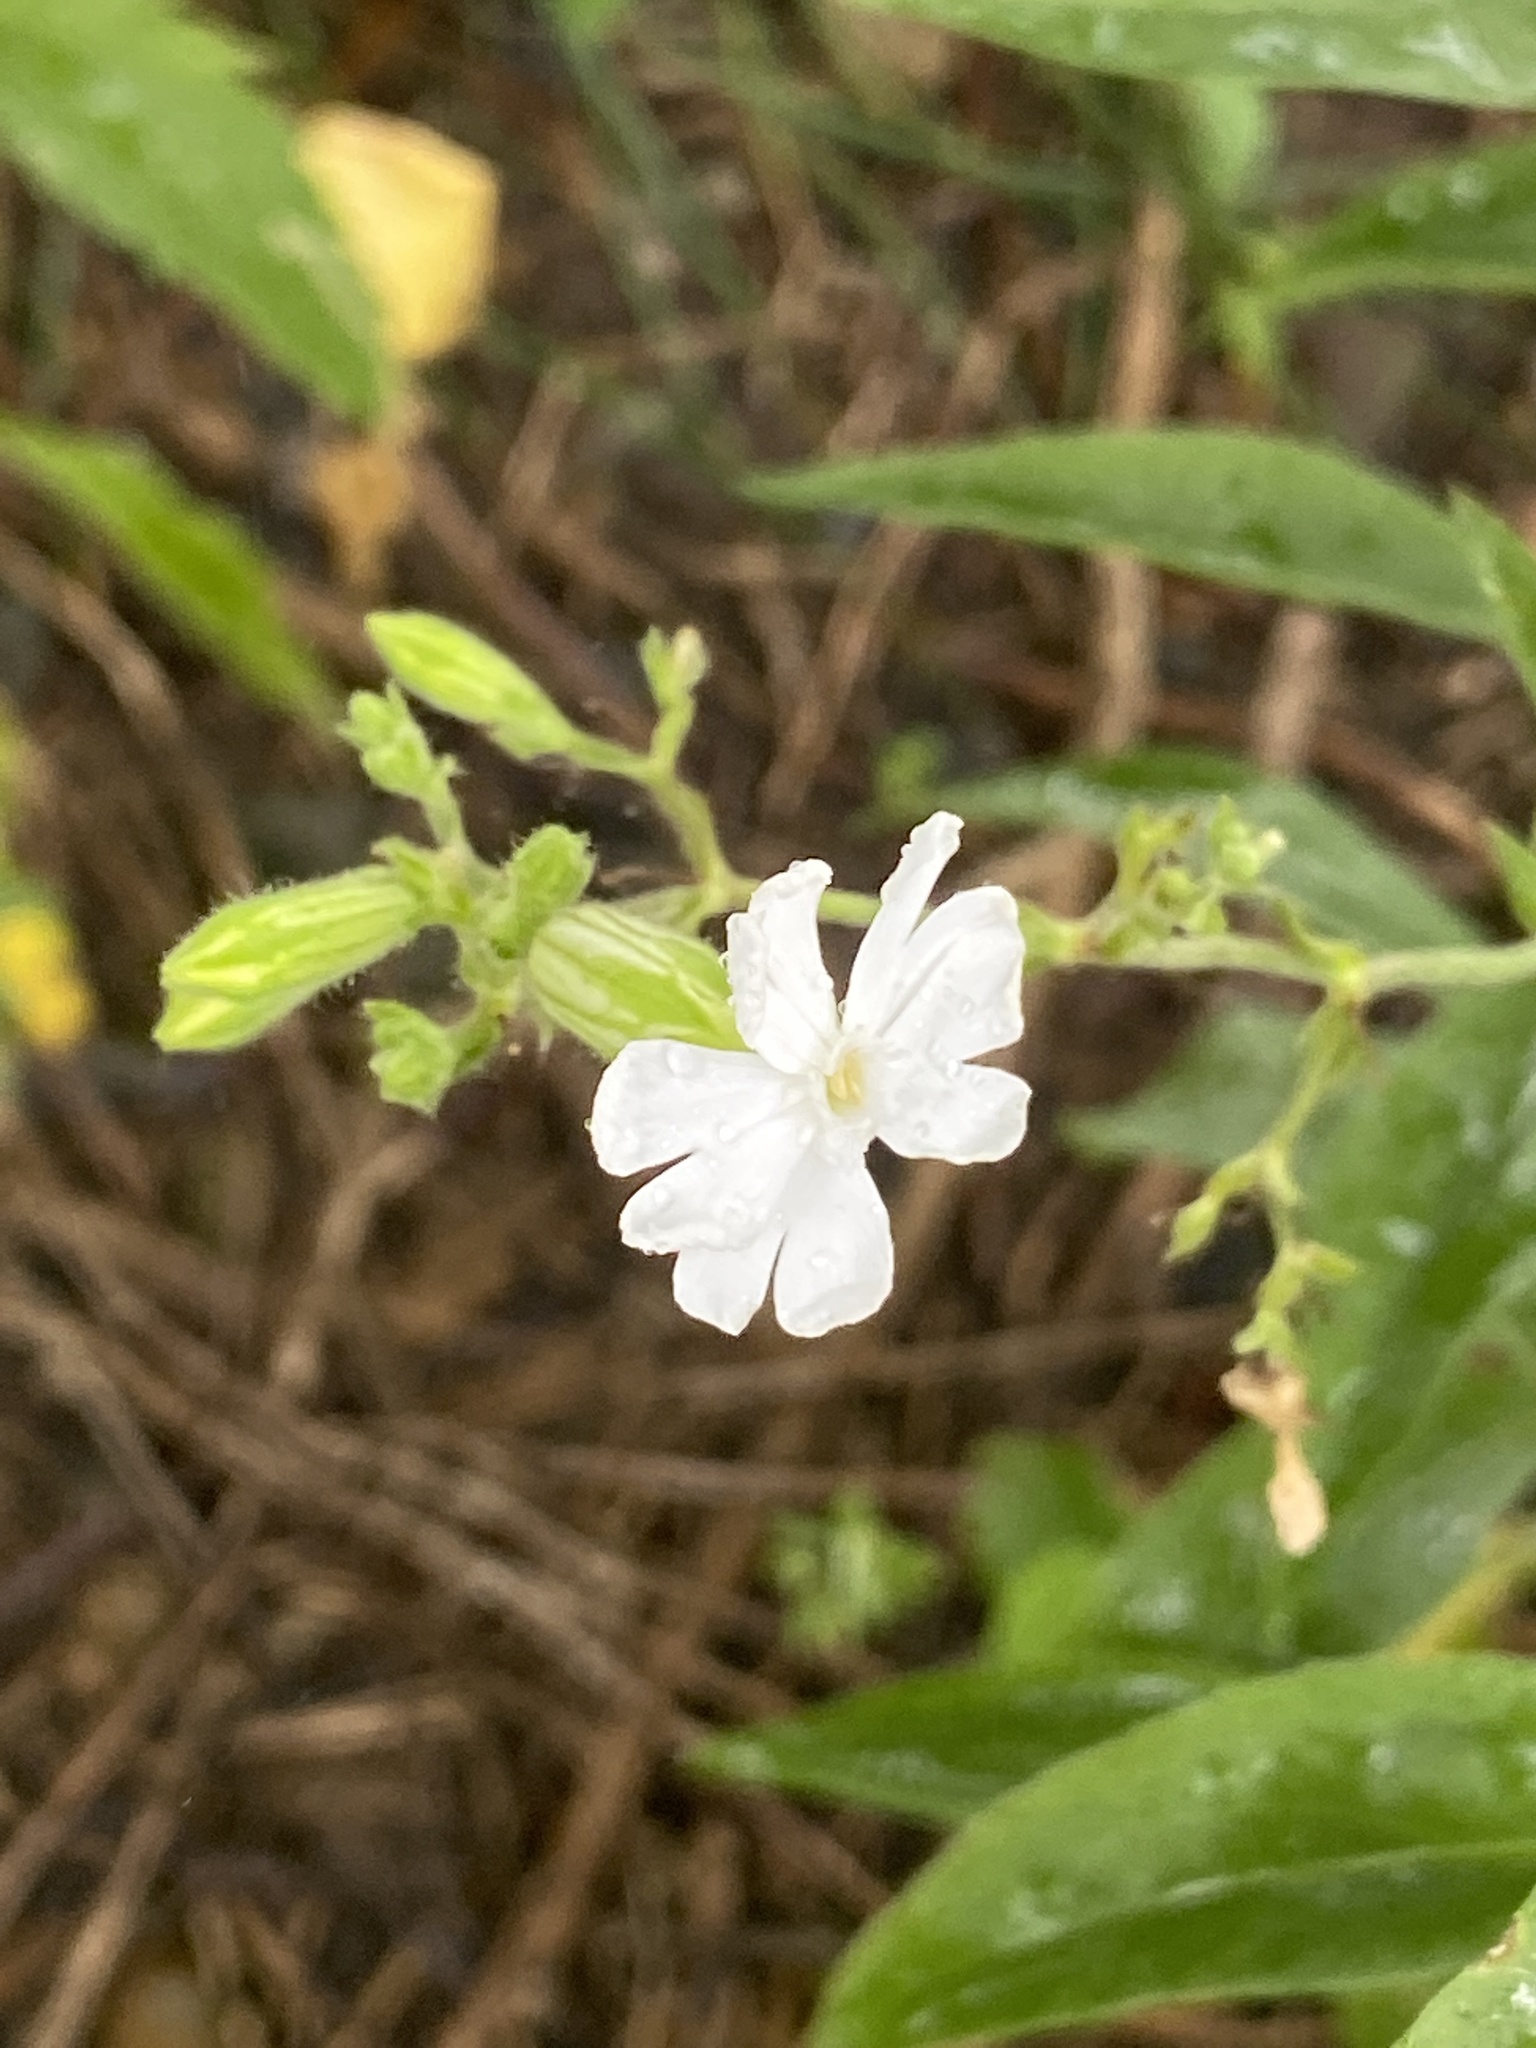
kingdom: Plantae
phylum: Tracheophyta
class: Magnoliopsida
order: Caryophyllales
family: Caryophyllaceae
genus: Silene
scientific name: Silene latifolia
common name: White campion
